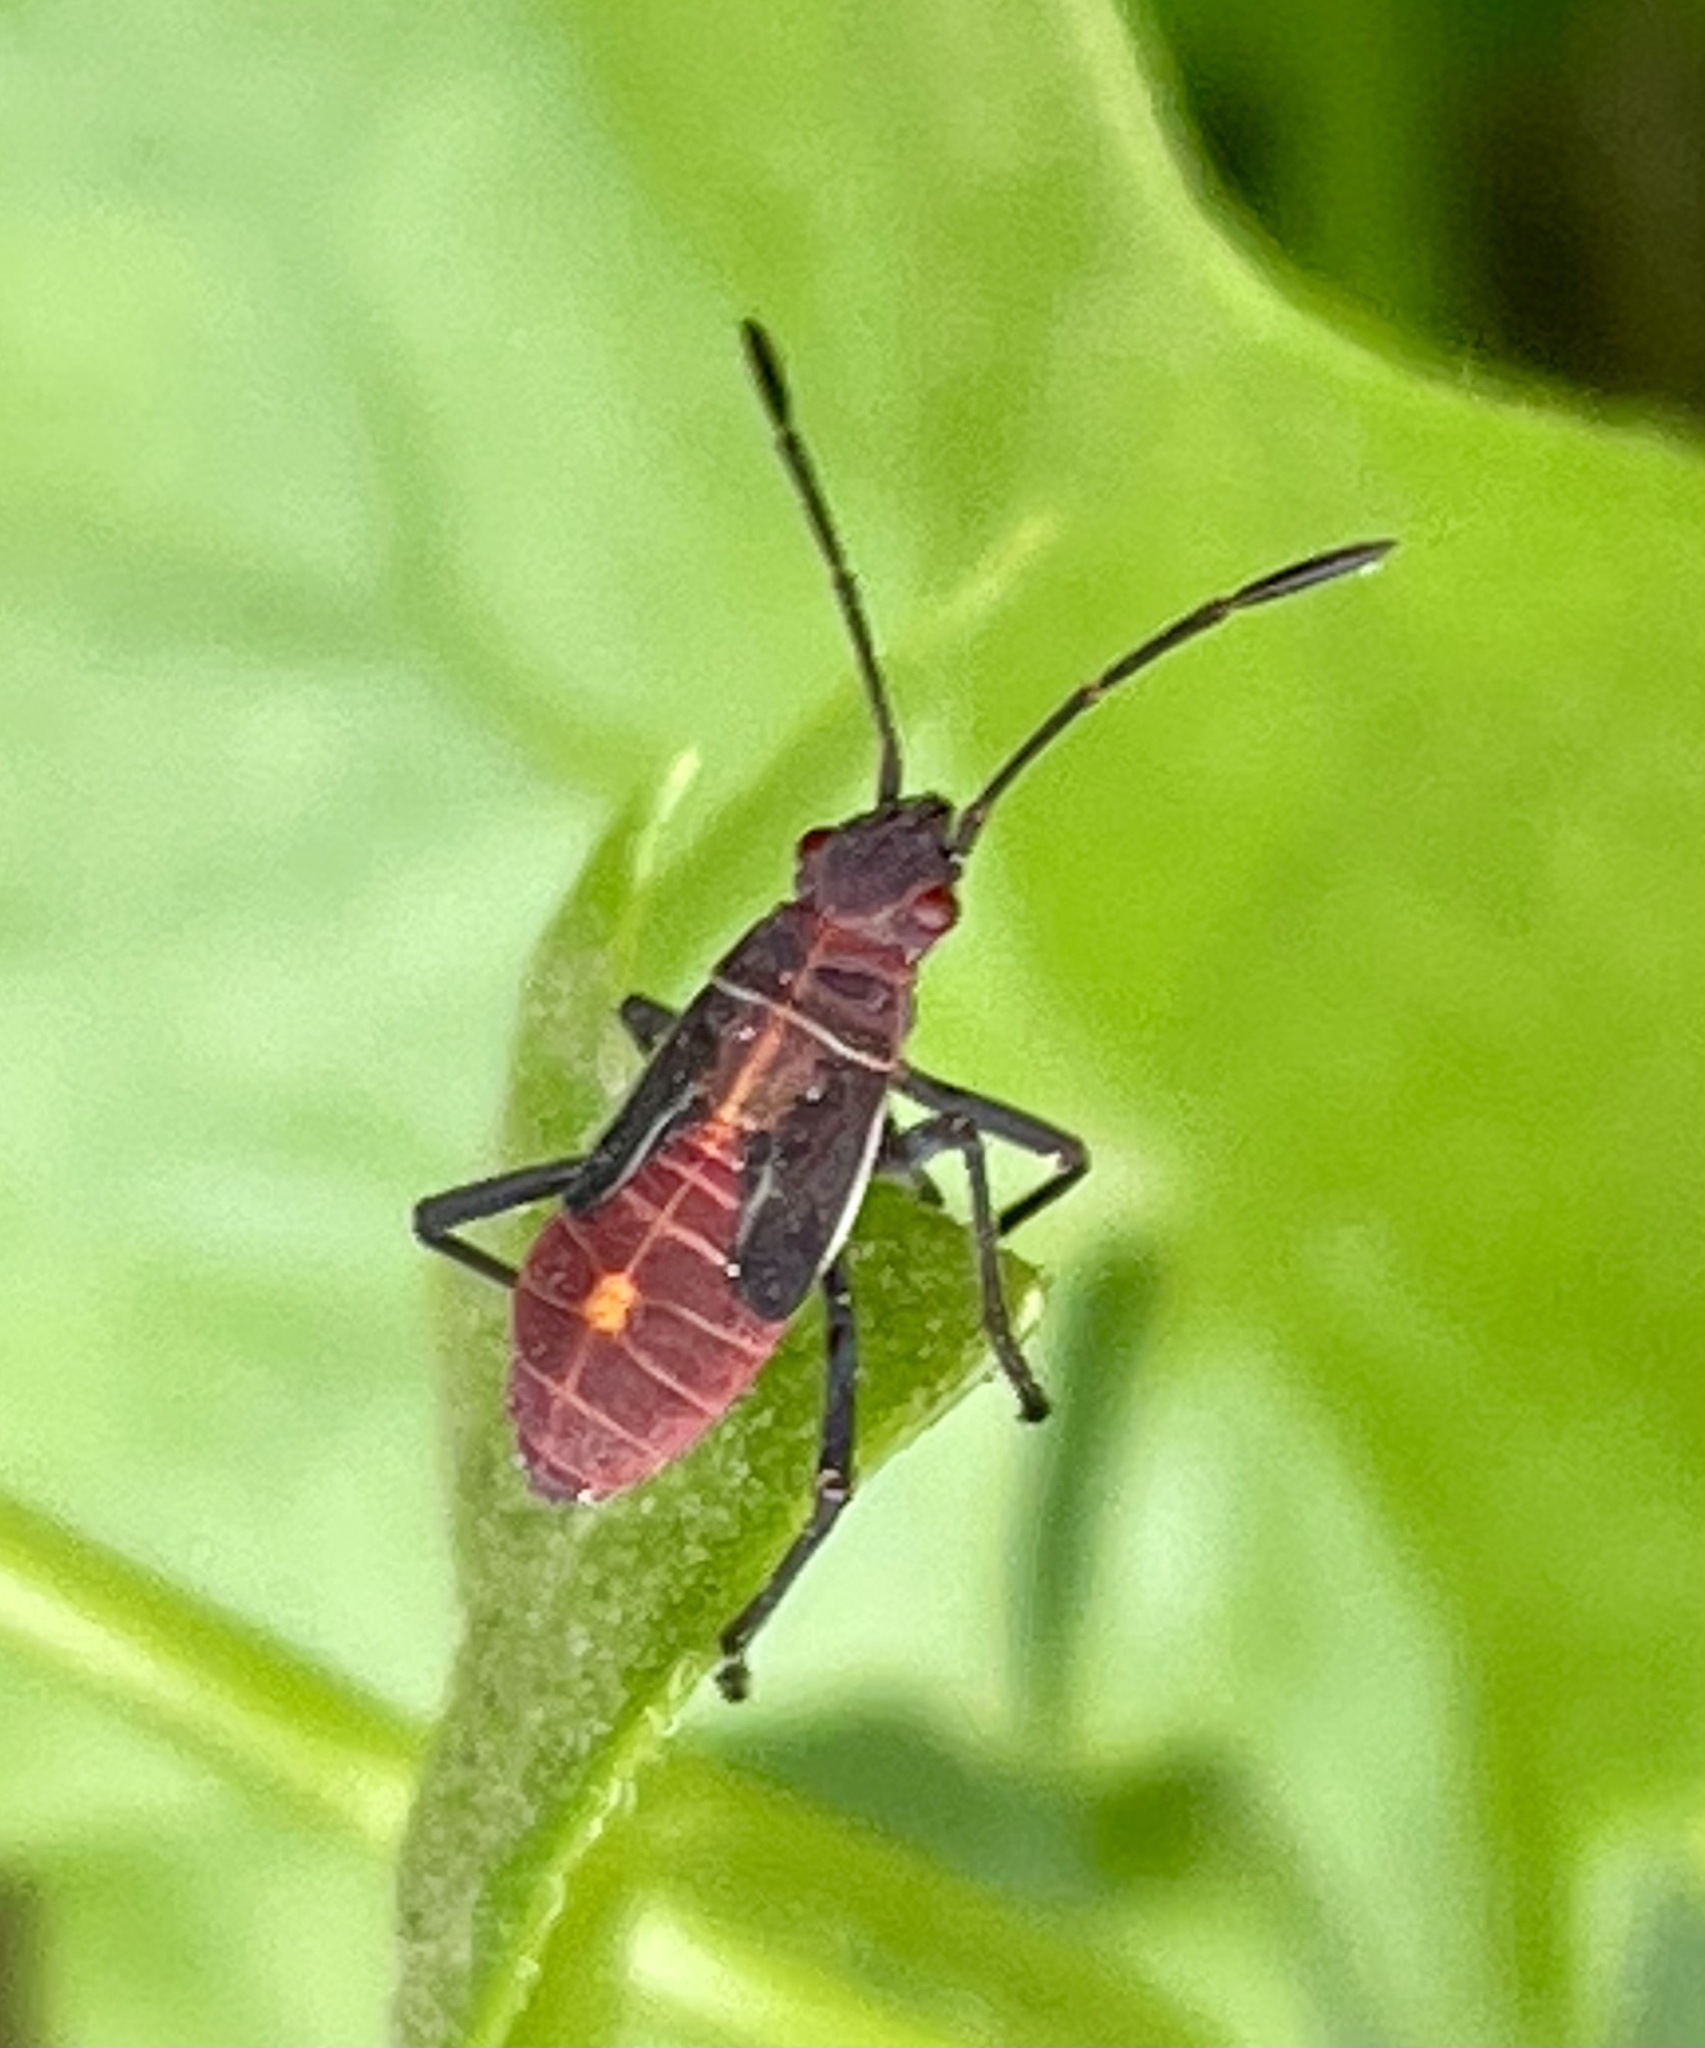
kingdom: Animalia
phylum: Arthropoda
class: Insecta
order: Hemiptera
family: Rhopalidae
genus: Boisea
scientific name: Boisea rubrolineata
